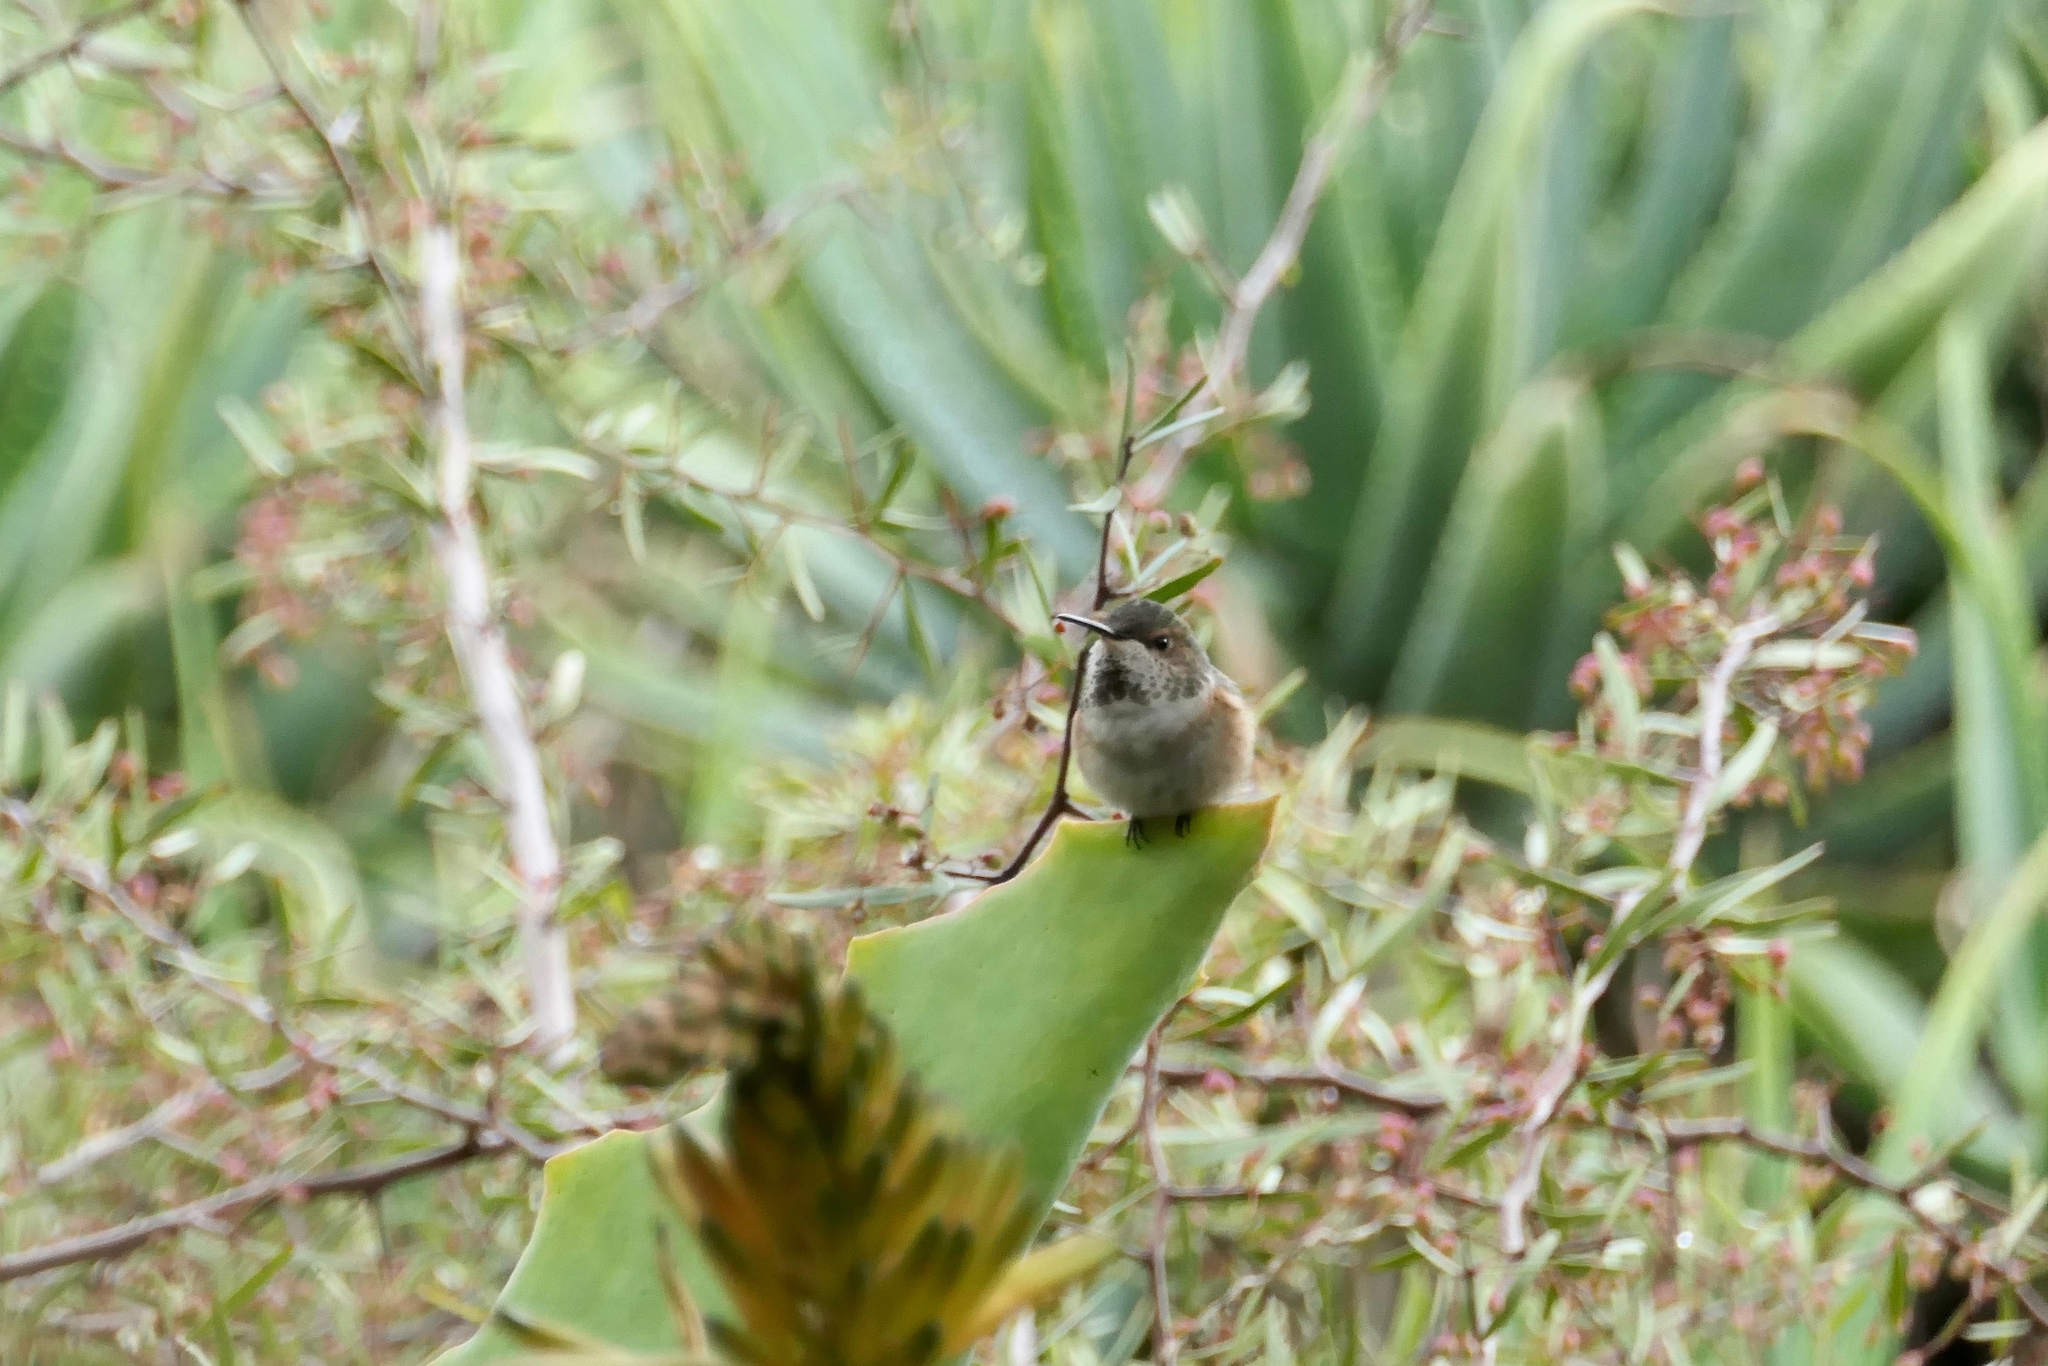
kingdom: Animalia
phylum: Chordata
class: Aves
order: Apodiformes
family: Trochilidae
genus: Selasphorus
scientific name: Selasphorus
